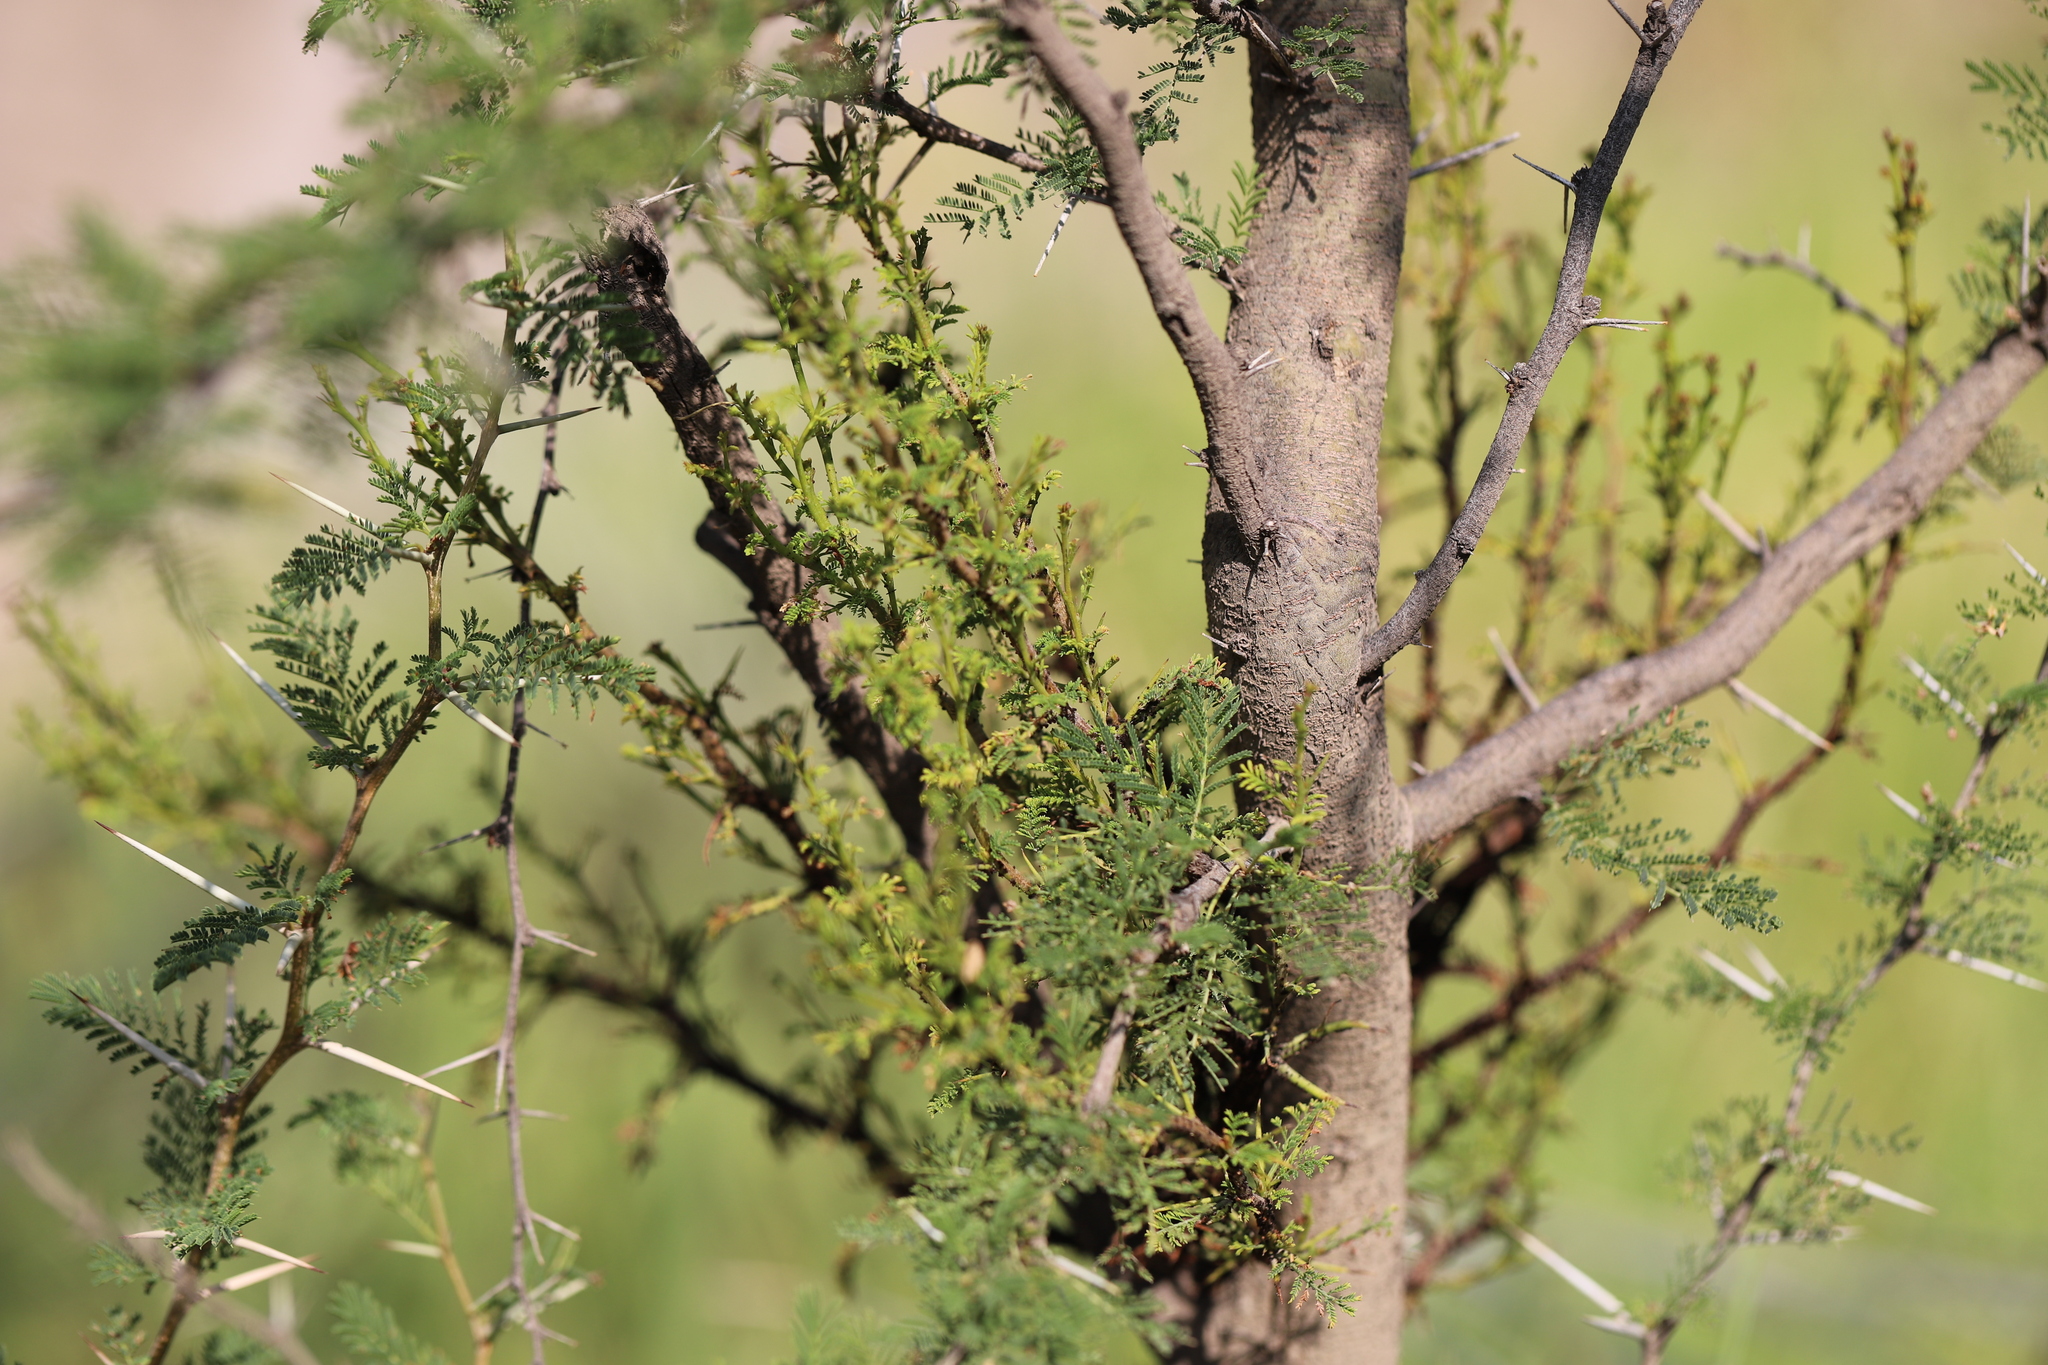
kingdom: Plantae
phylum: Tracheophyta
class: Magnoliopsida
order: Fabales
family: Fabaceae
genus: Vachellia
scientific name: Vachellia caven
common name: Roman cassie
